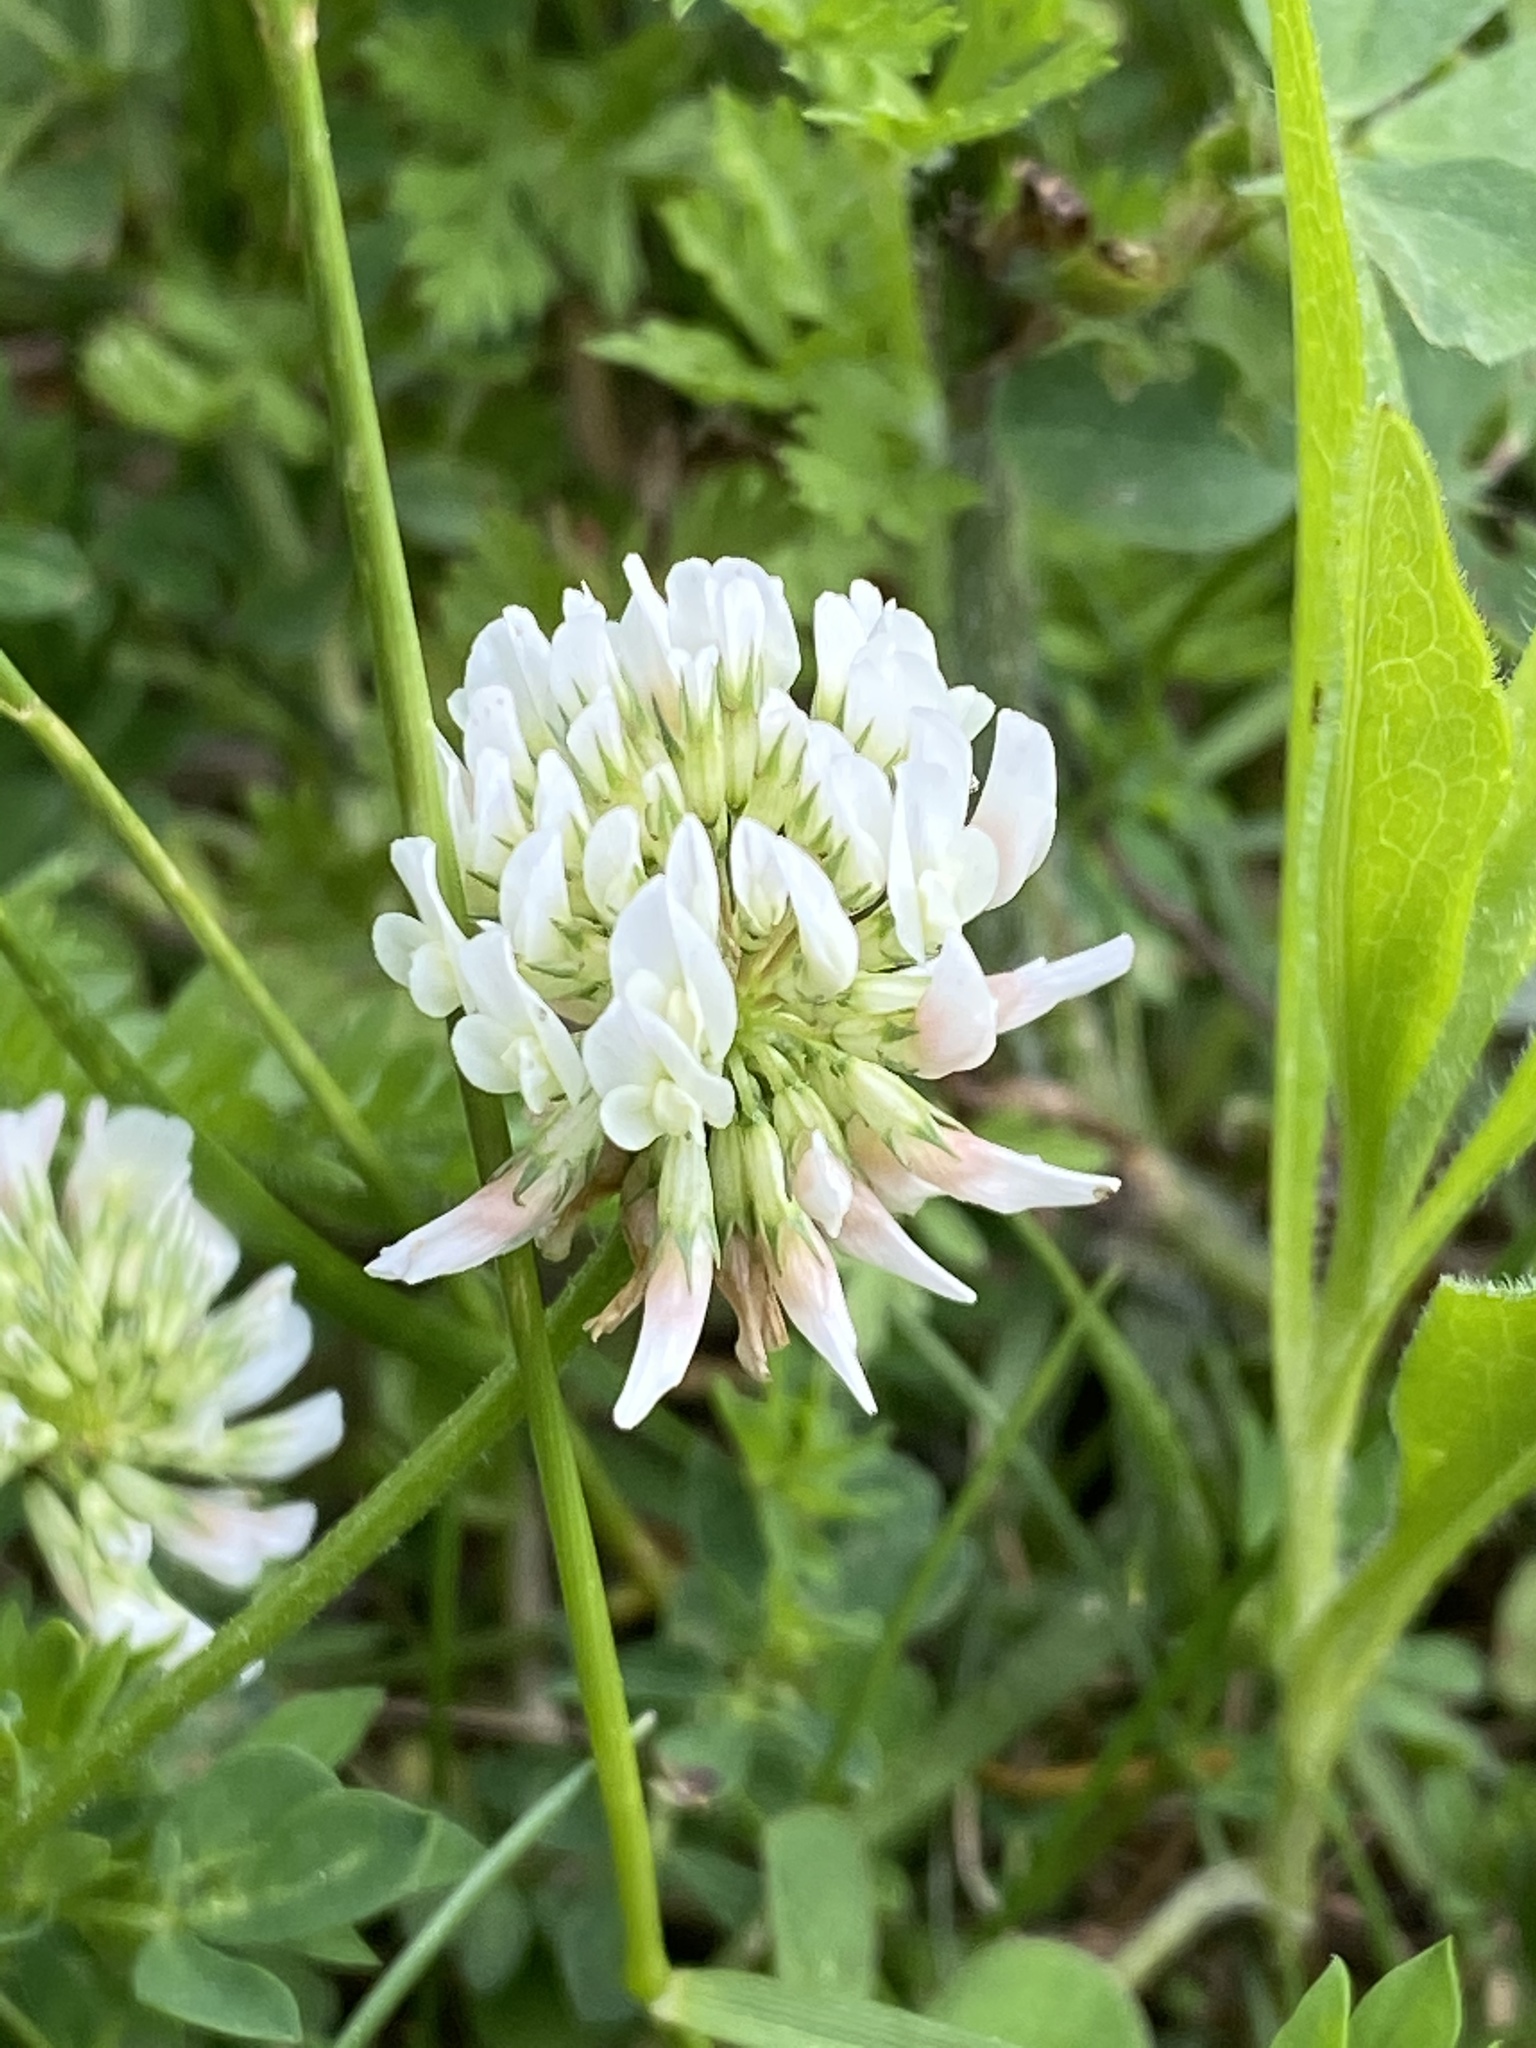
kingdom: Plantae
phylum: Tracheophyta
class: Magnoliopsida
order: Fabales
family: Fabaceae
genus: Trifolium
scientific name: Trifolium repens
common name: White clover
